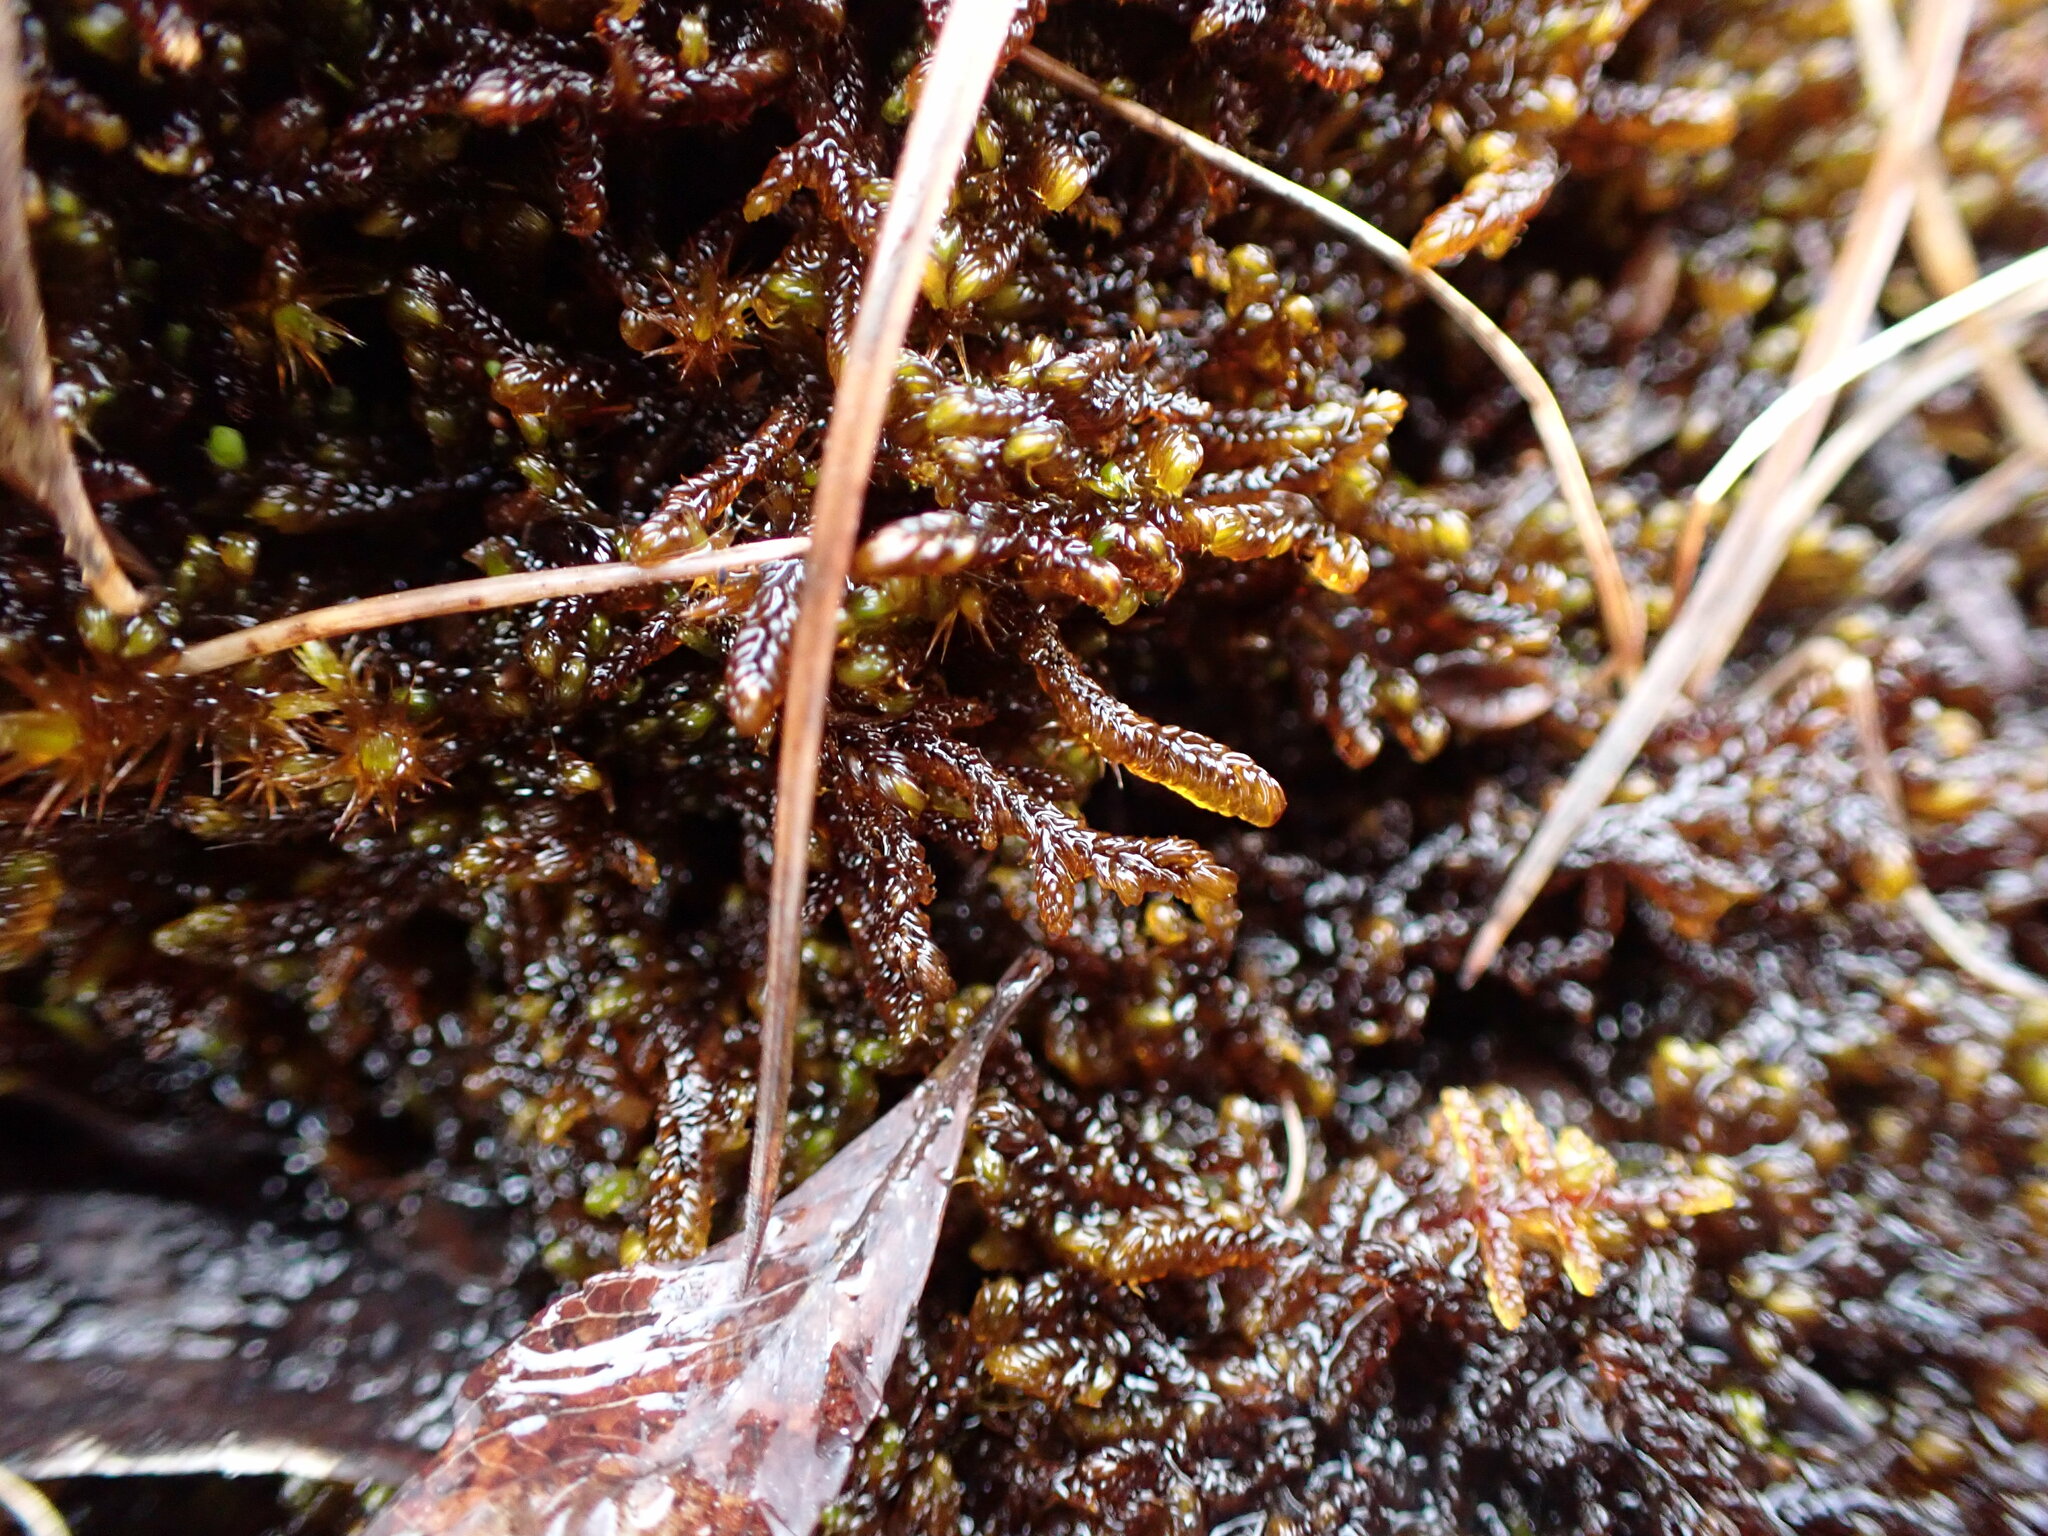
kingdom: Plantae
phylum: Bryophyta
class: Bryopsida
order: Hypnales
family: Scorpidiaceae
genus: Scorpidium
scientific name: Scorpidium scorpioides
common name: Hooked scorpion moss
